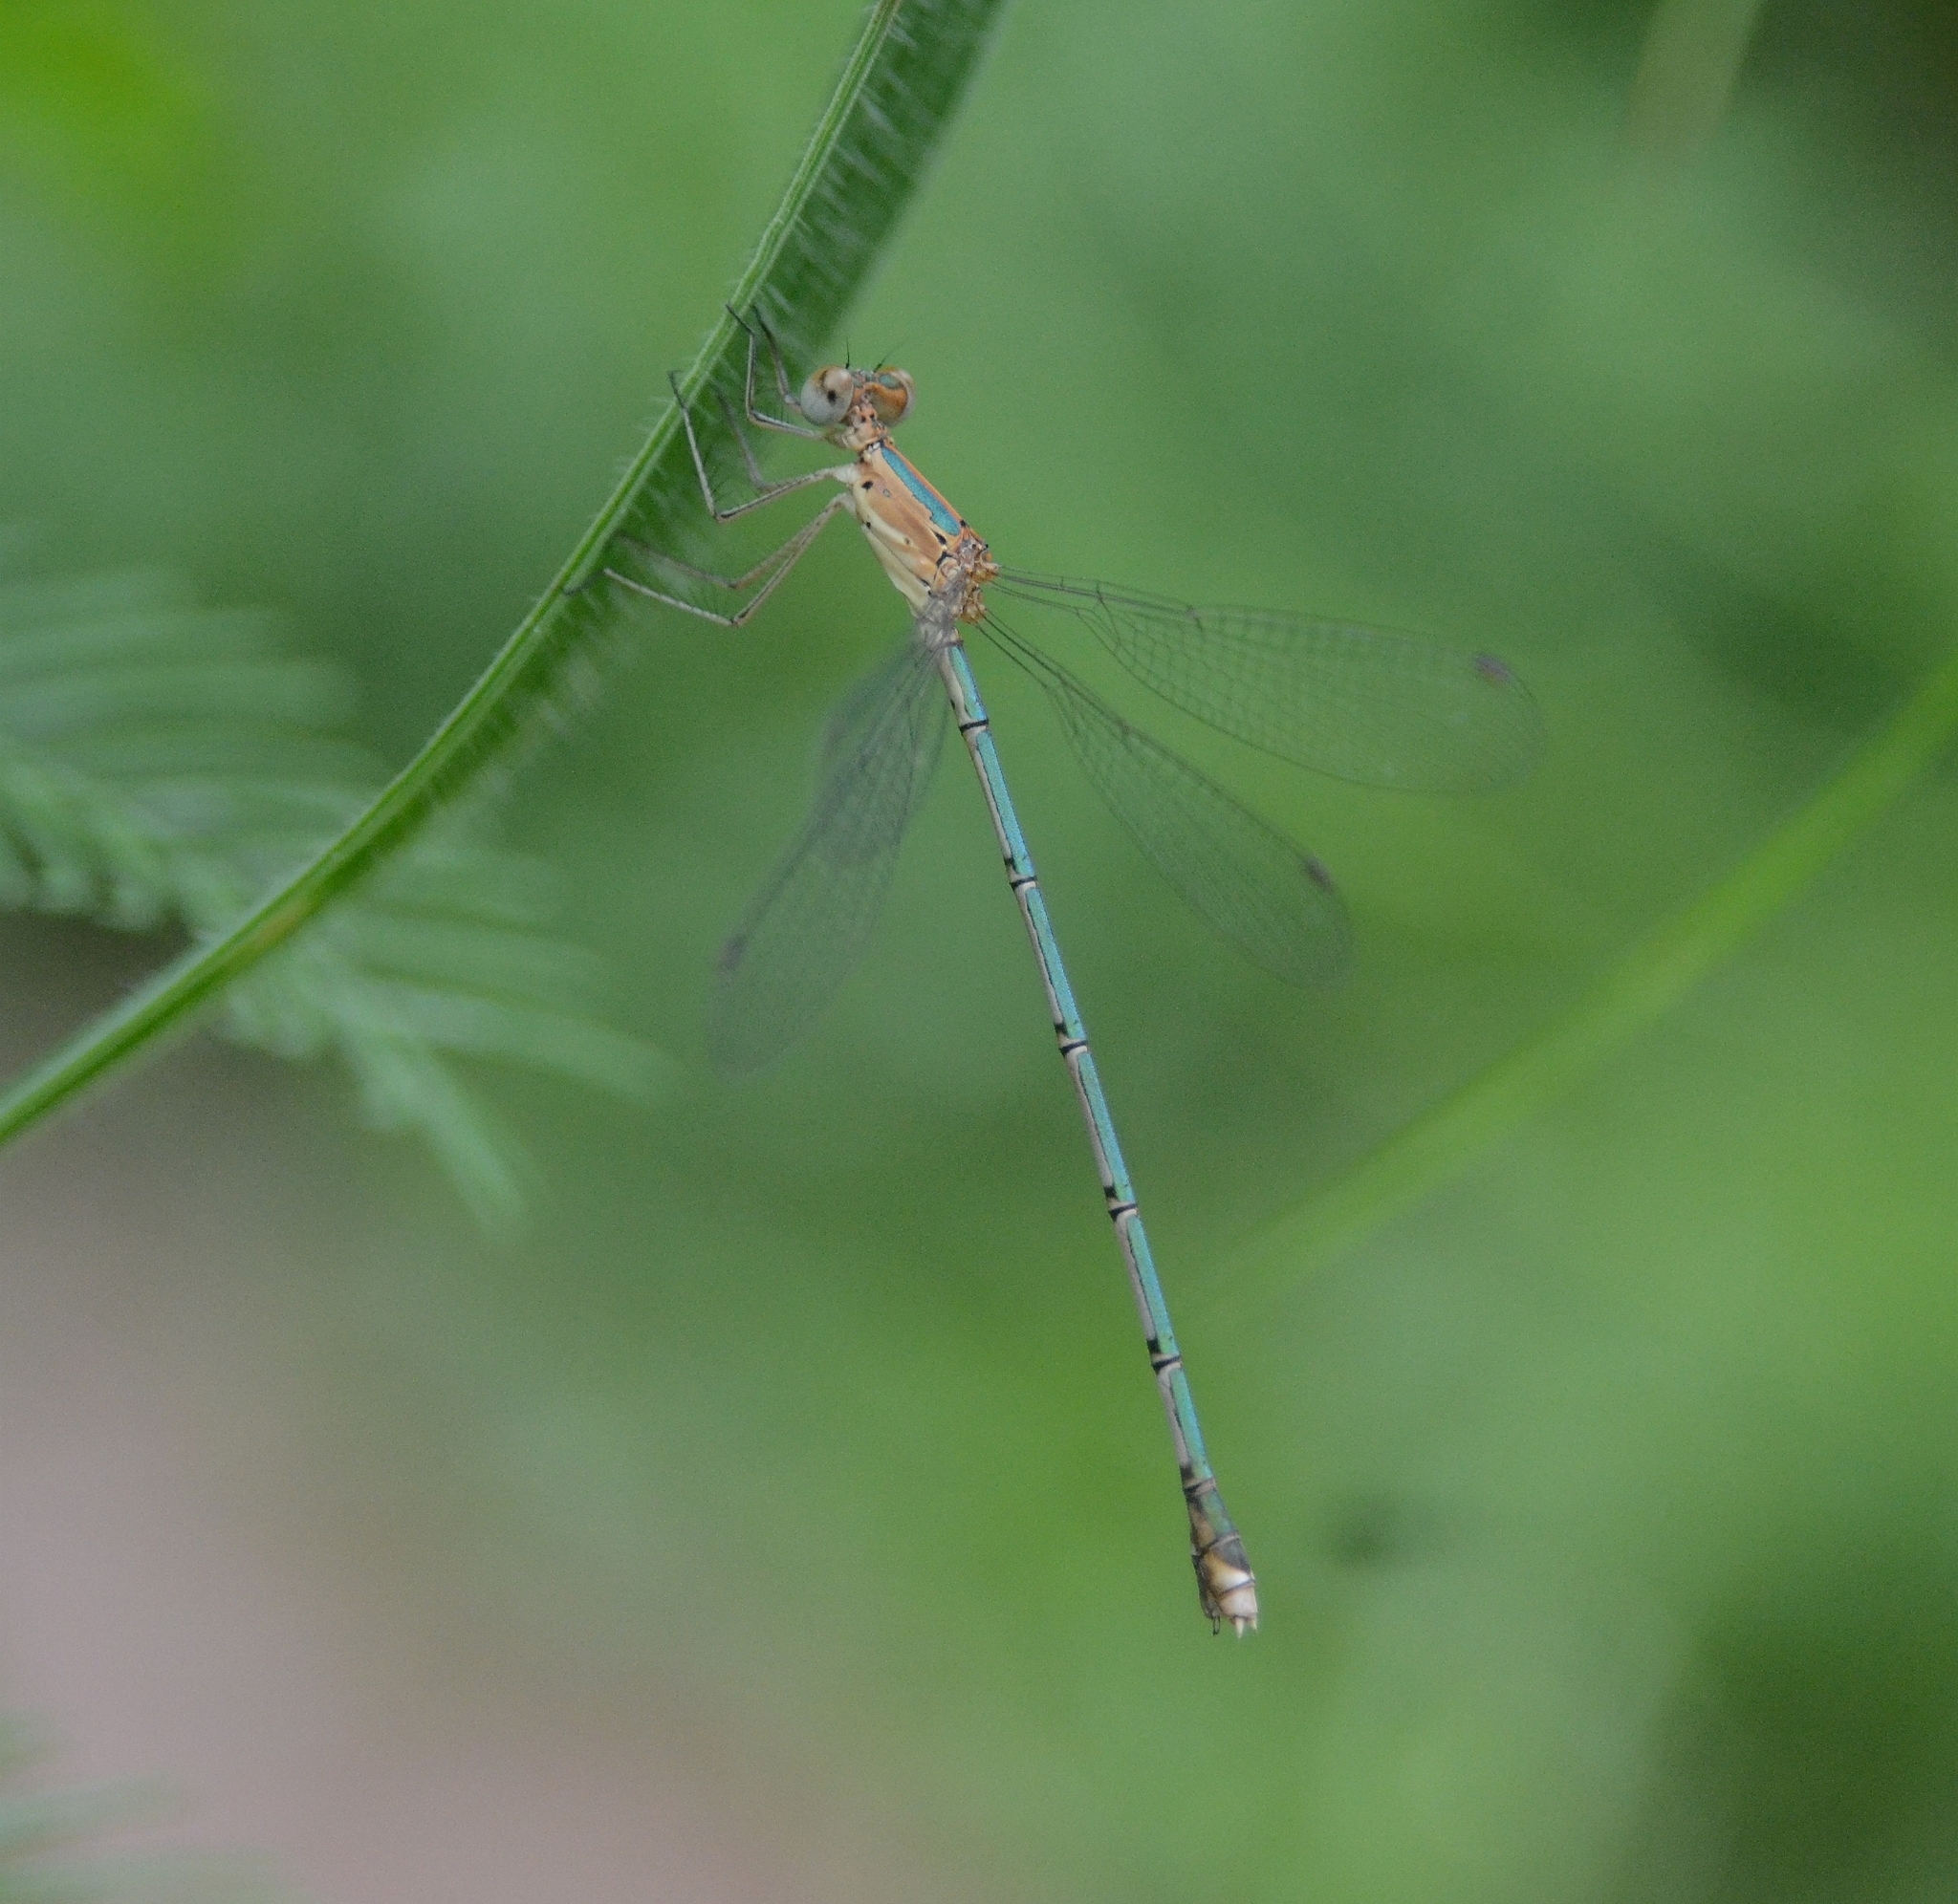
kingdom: Animalia
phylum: Arthropoda
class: Insecta
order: Odonata
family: Lestidae
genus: Lestes
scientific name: Lestes elatus
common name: Emerald spreadwing
